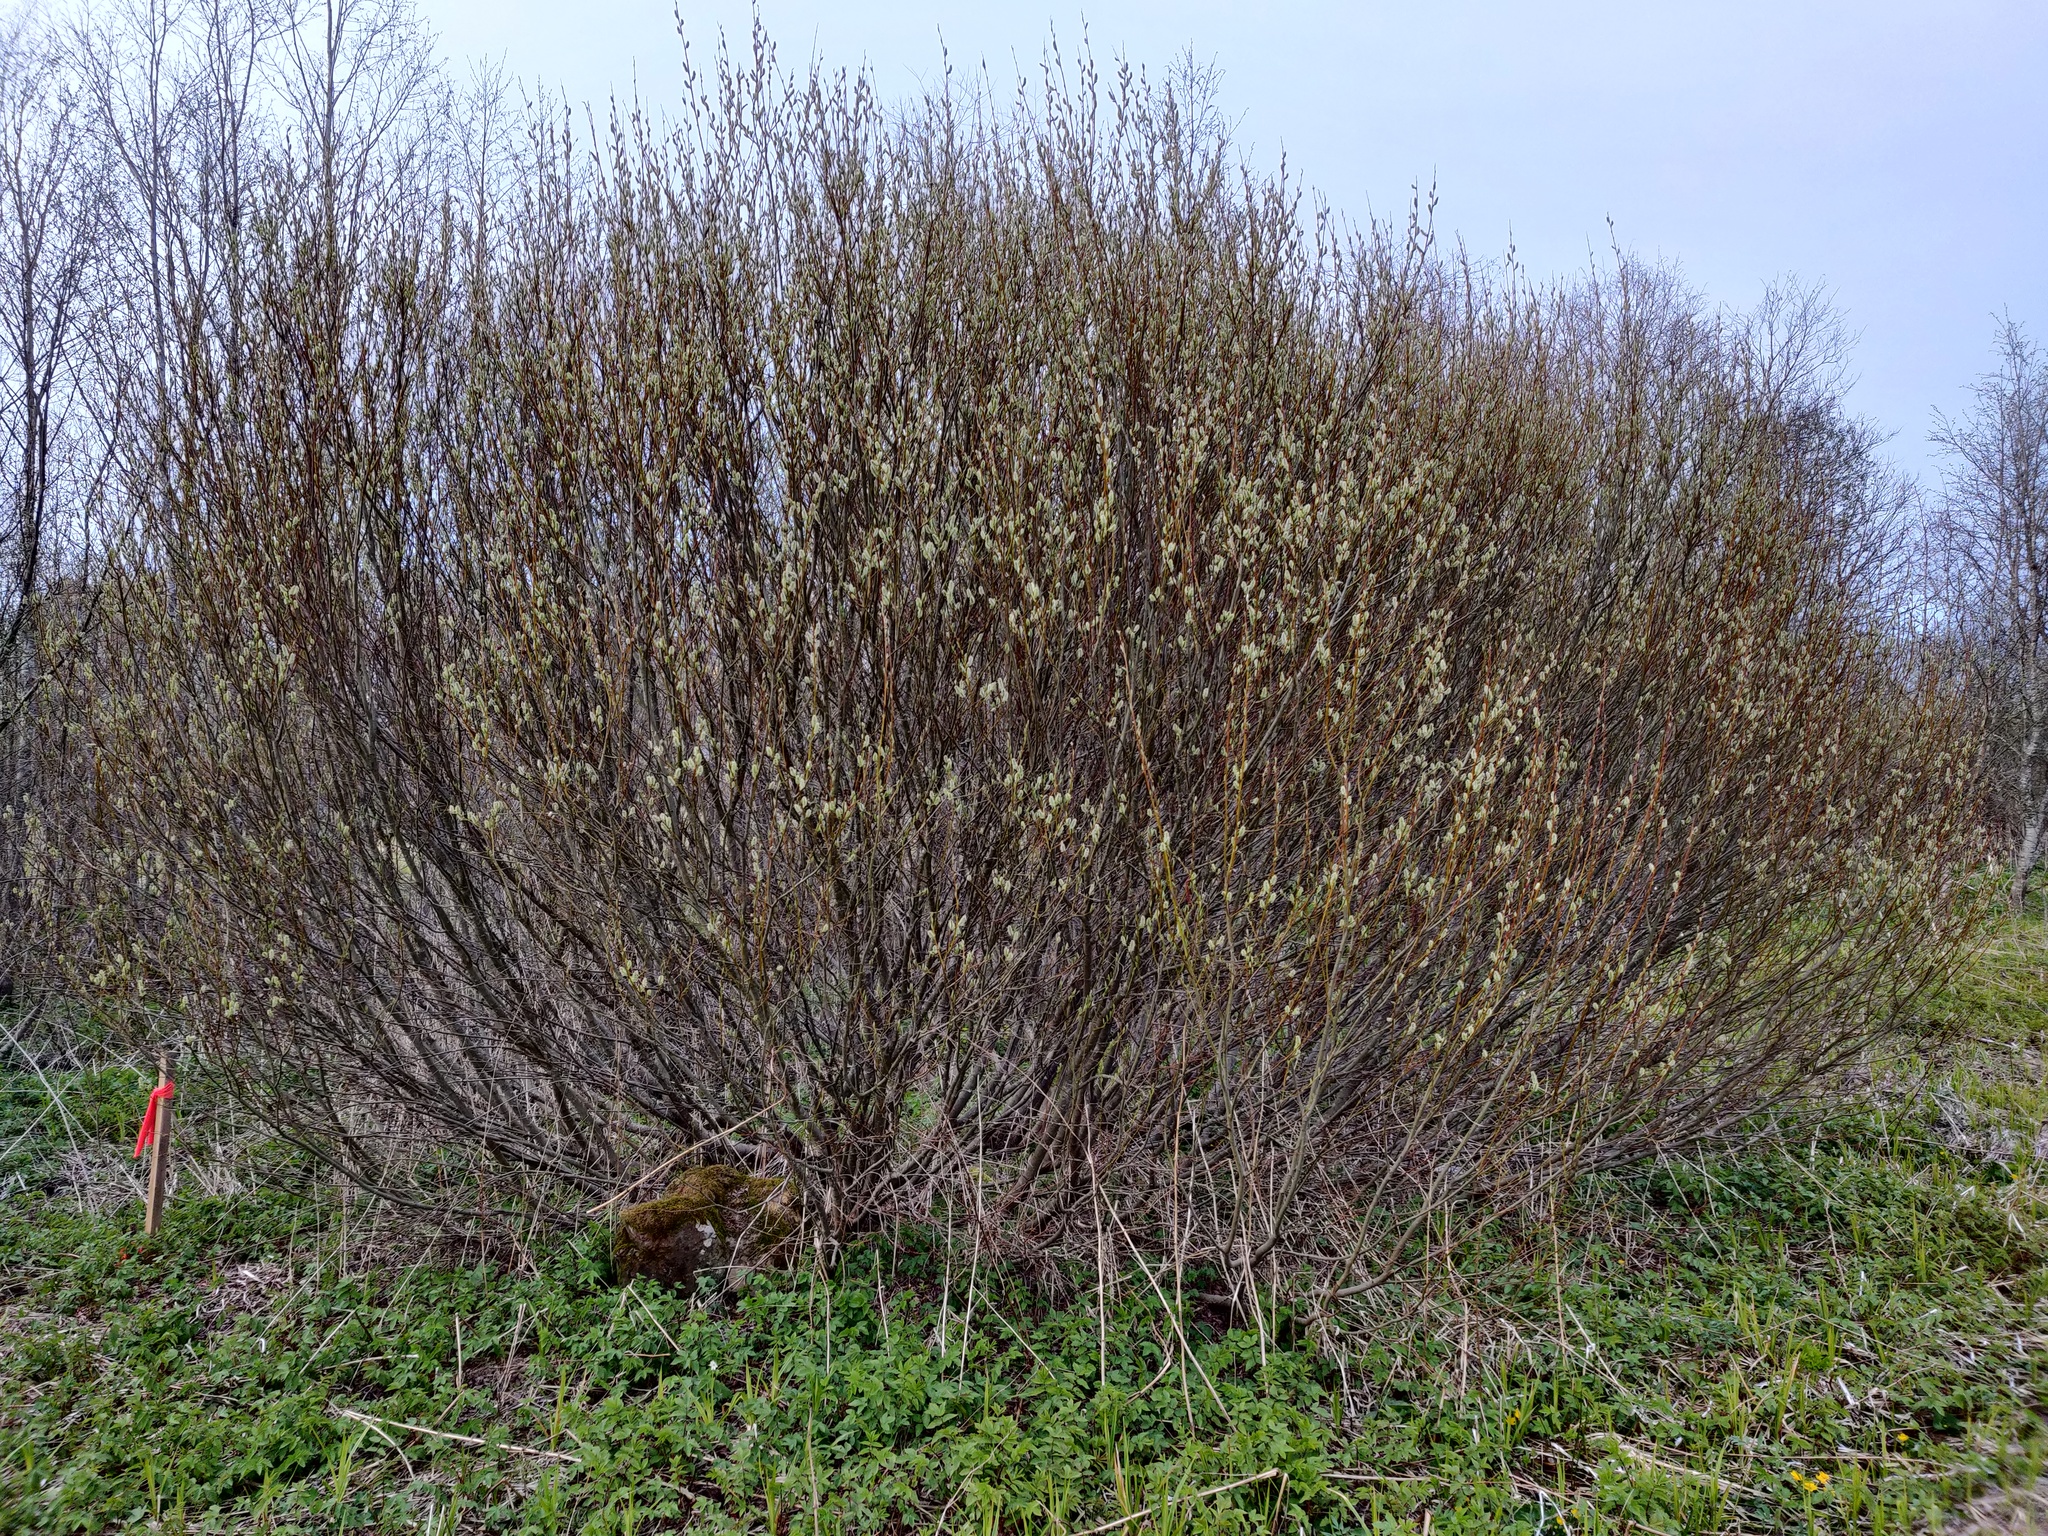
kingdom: Plantae
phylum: Tracheophyta
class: Magnoliopsida
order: Malpighiales
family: Salicaceae
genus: Salix
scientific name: Salix phylicifolia
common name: Tea-leaved willow
